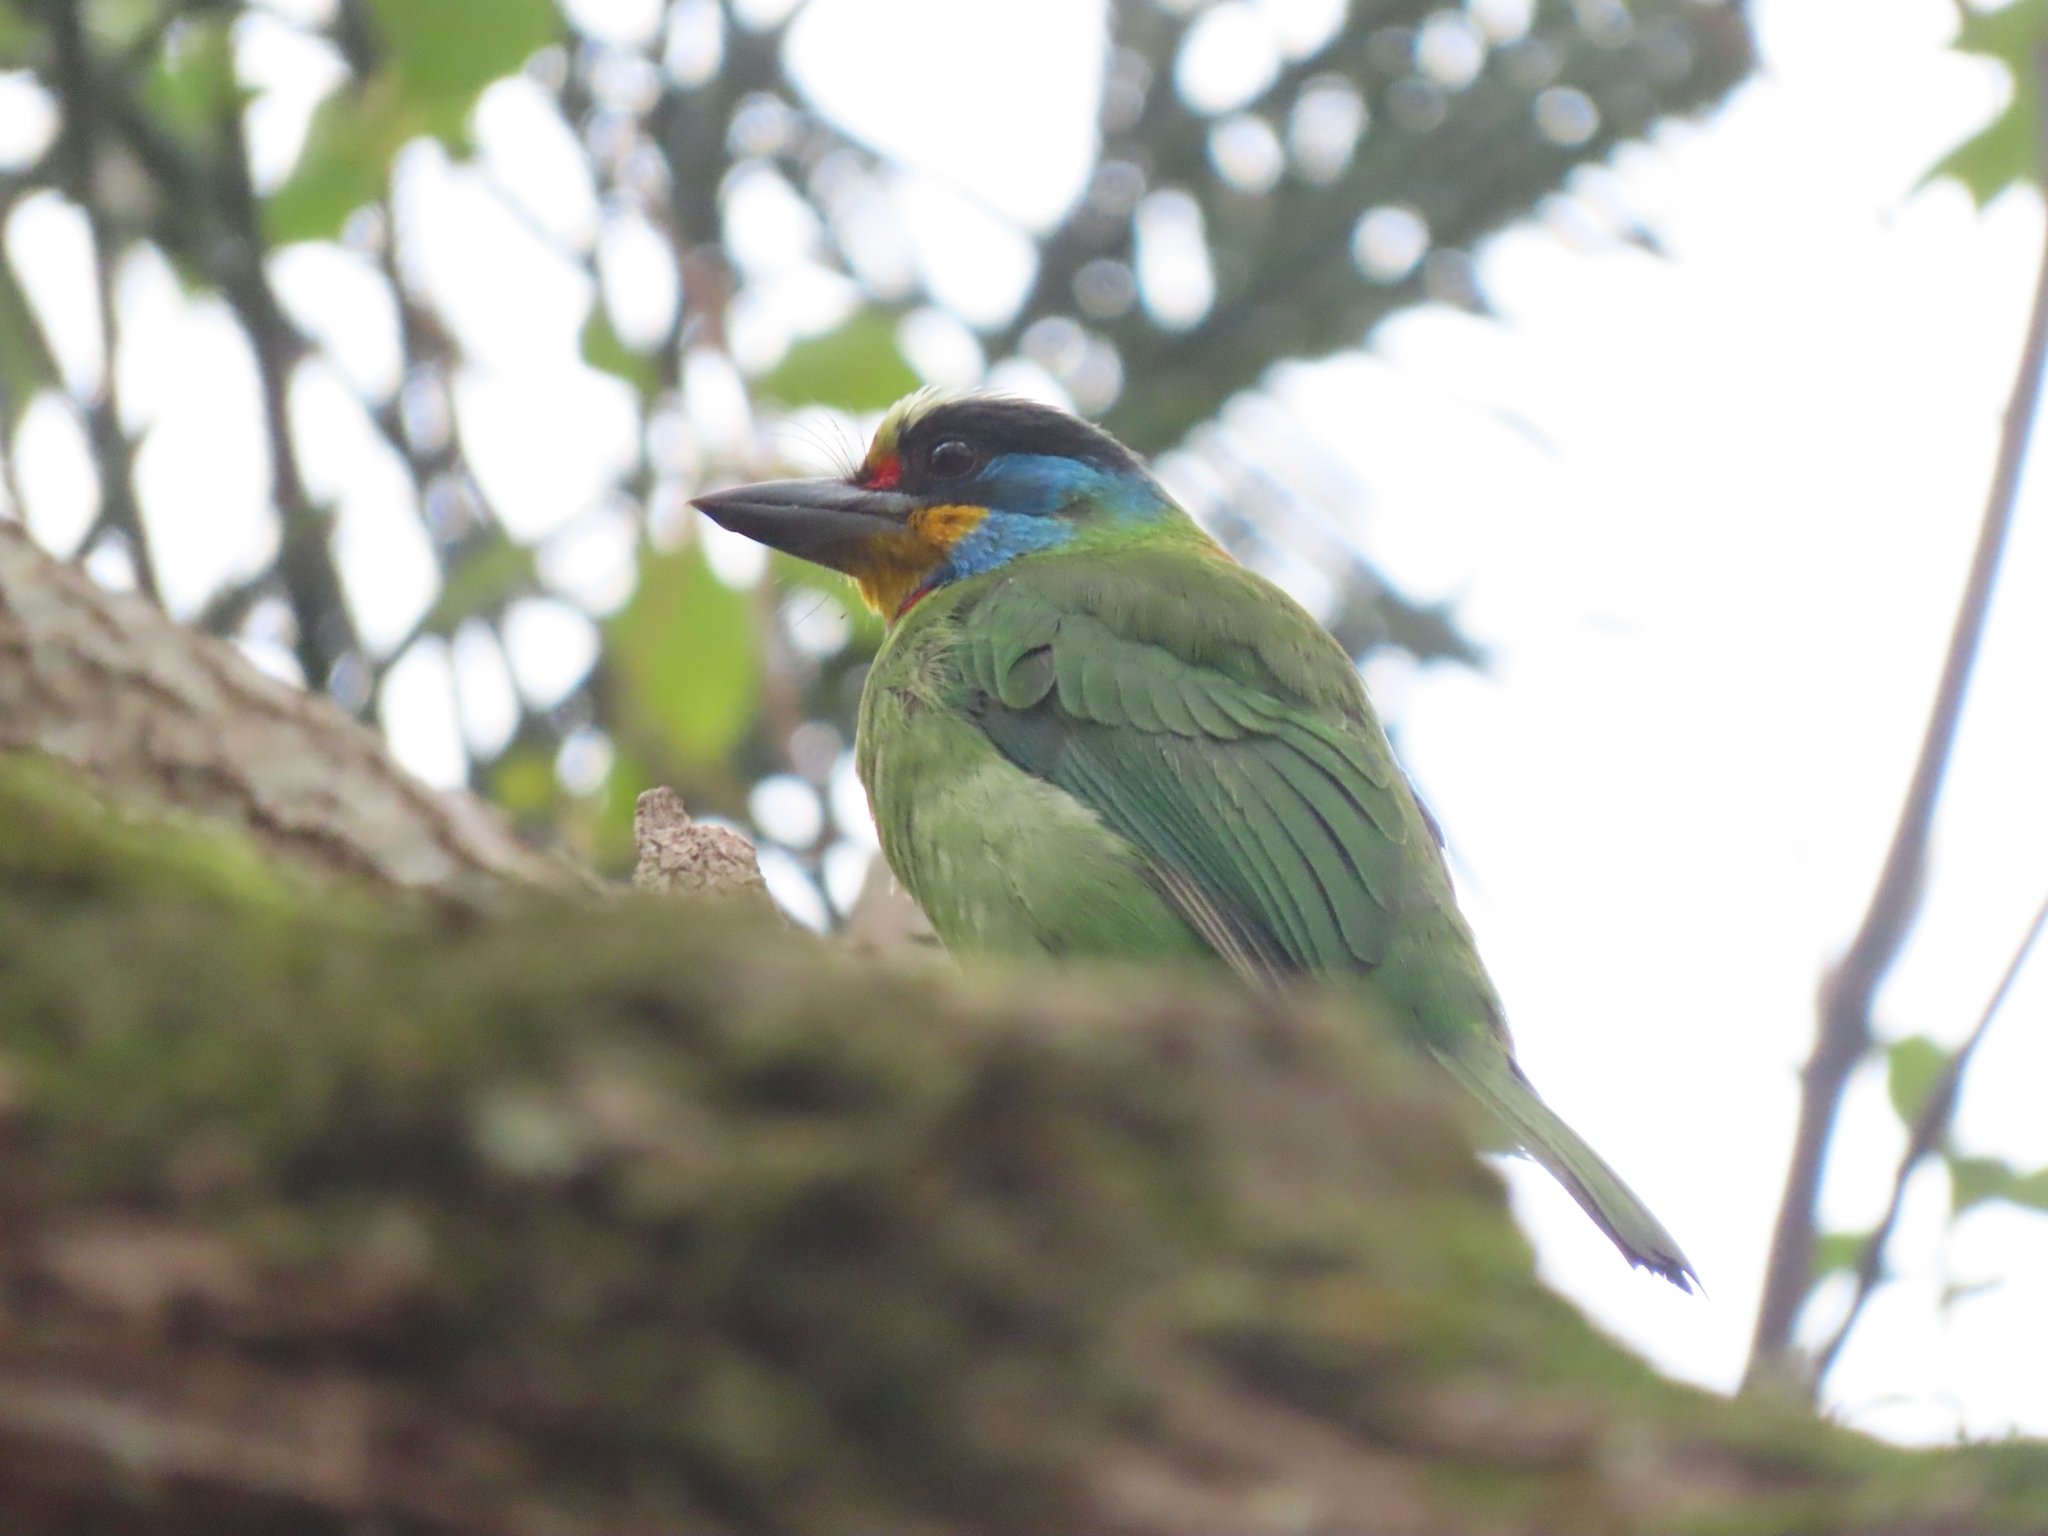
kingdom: Animalia
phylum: Chordata
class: Aves
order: Piciformes
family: Megalaimidae
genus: Psilopogon
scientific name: Psilopogon nuchalis
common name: Taiwan barbet
